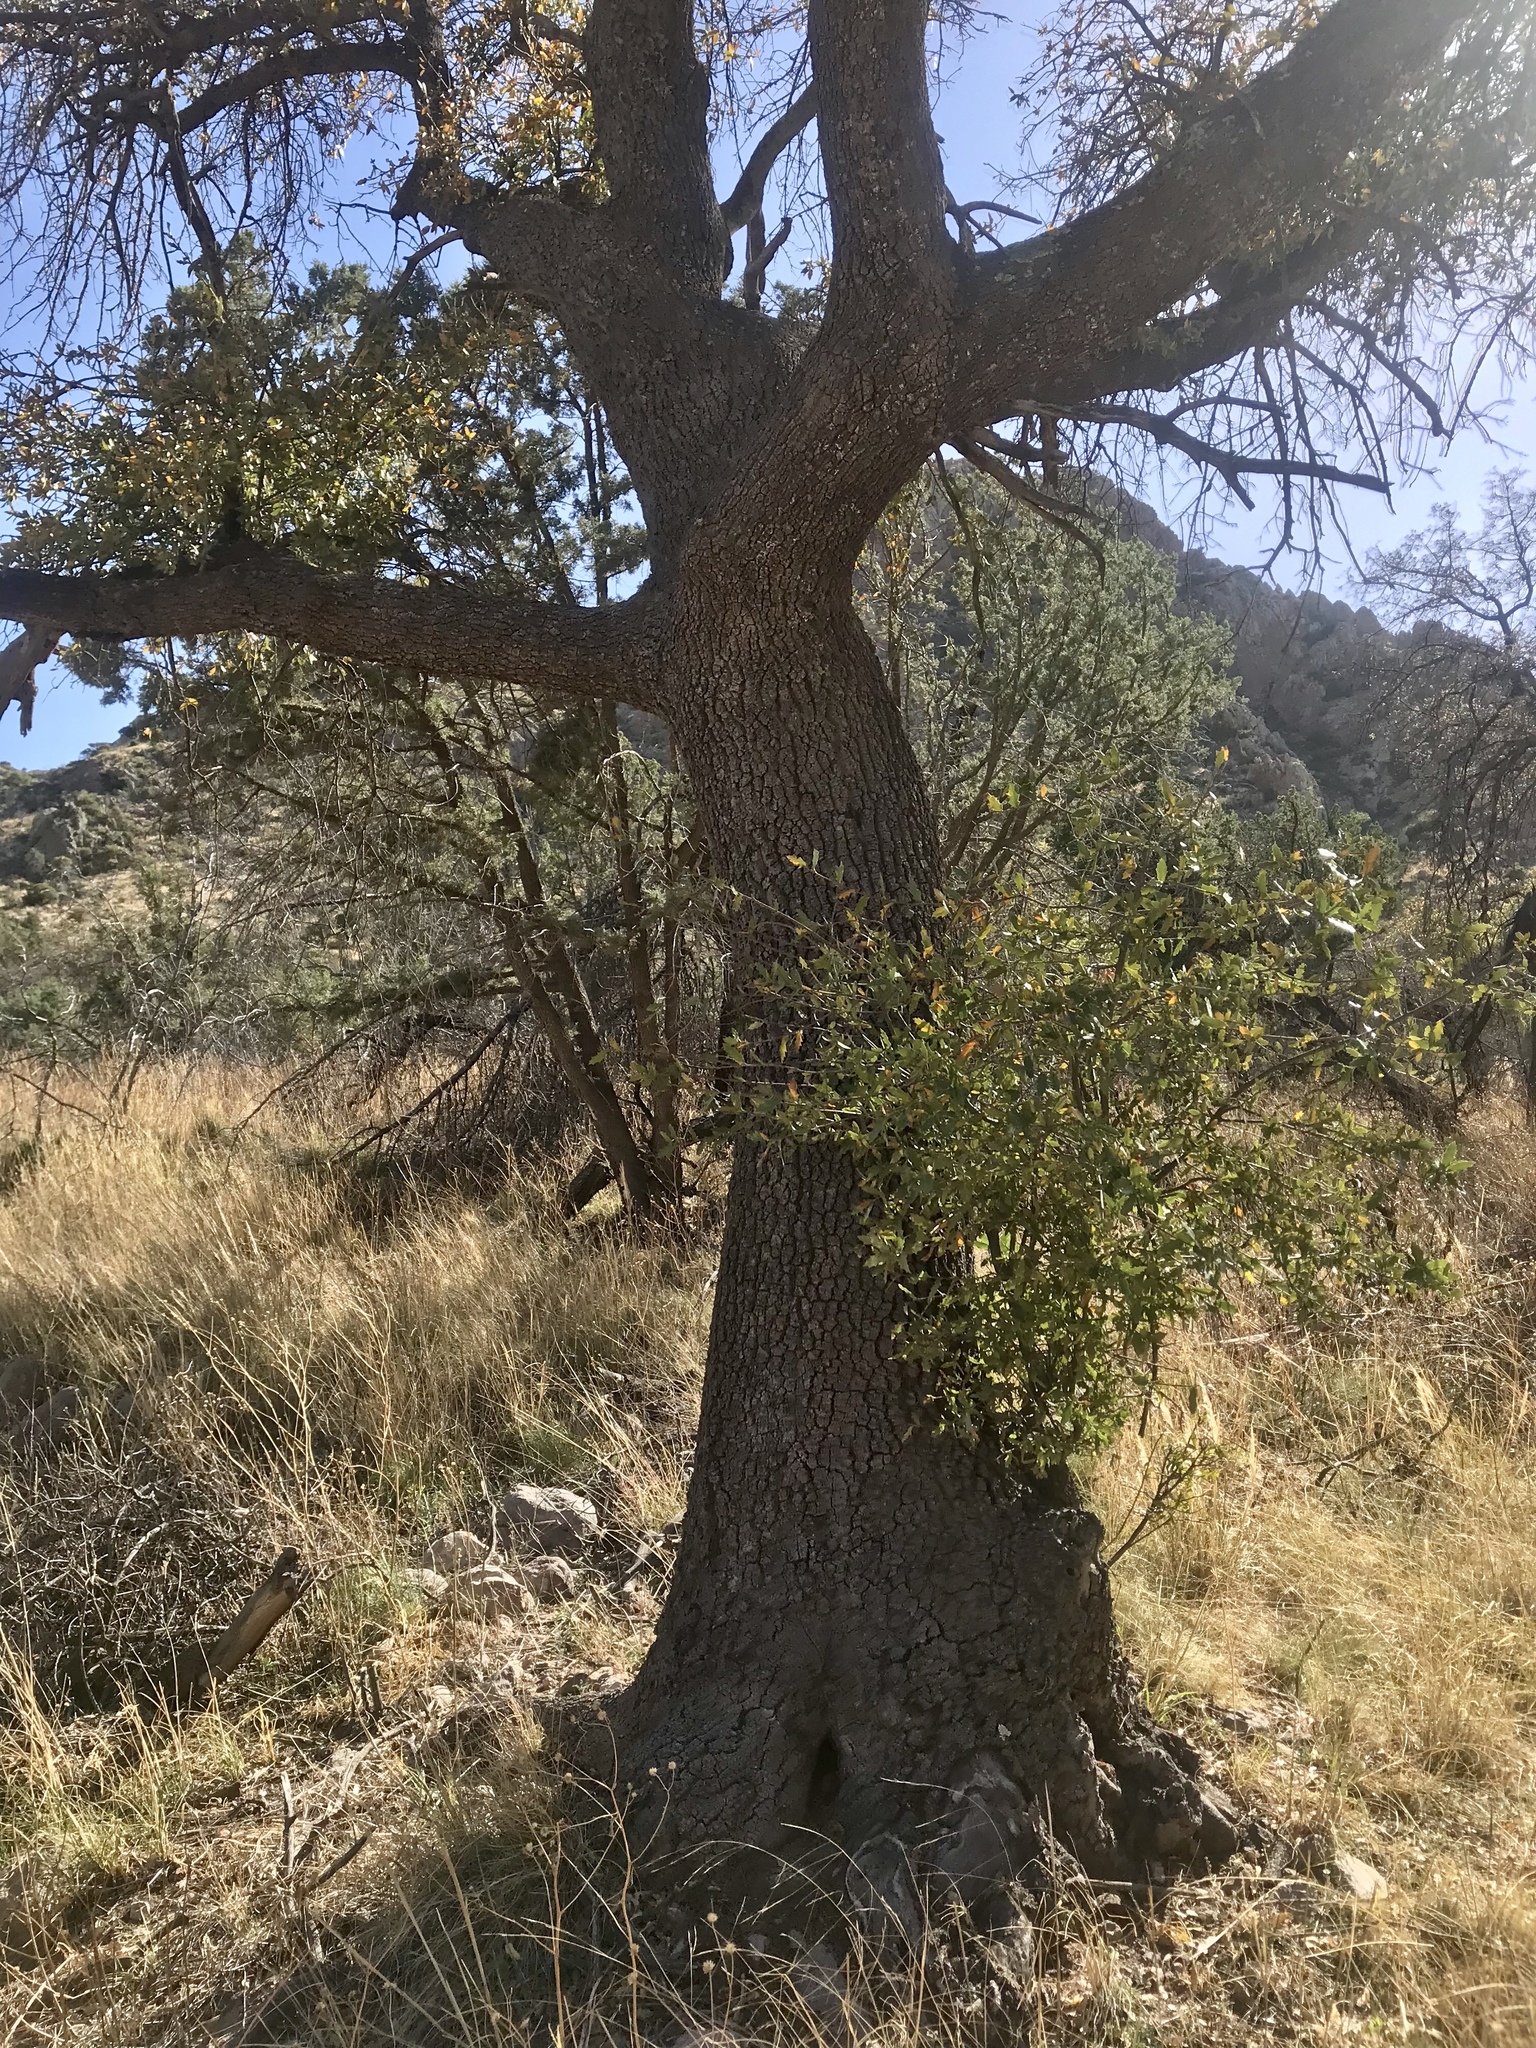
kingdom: Plantae
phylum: Tracheophyta
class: Magnoliopsida
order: Fagales
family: Fagaceae
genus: Quercus
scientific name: Quercus arizonica
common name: Arizona white oak
